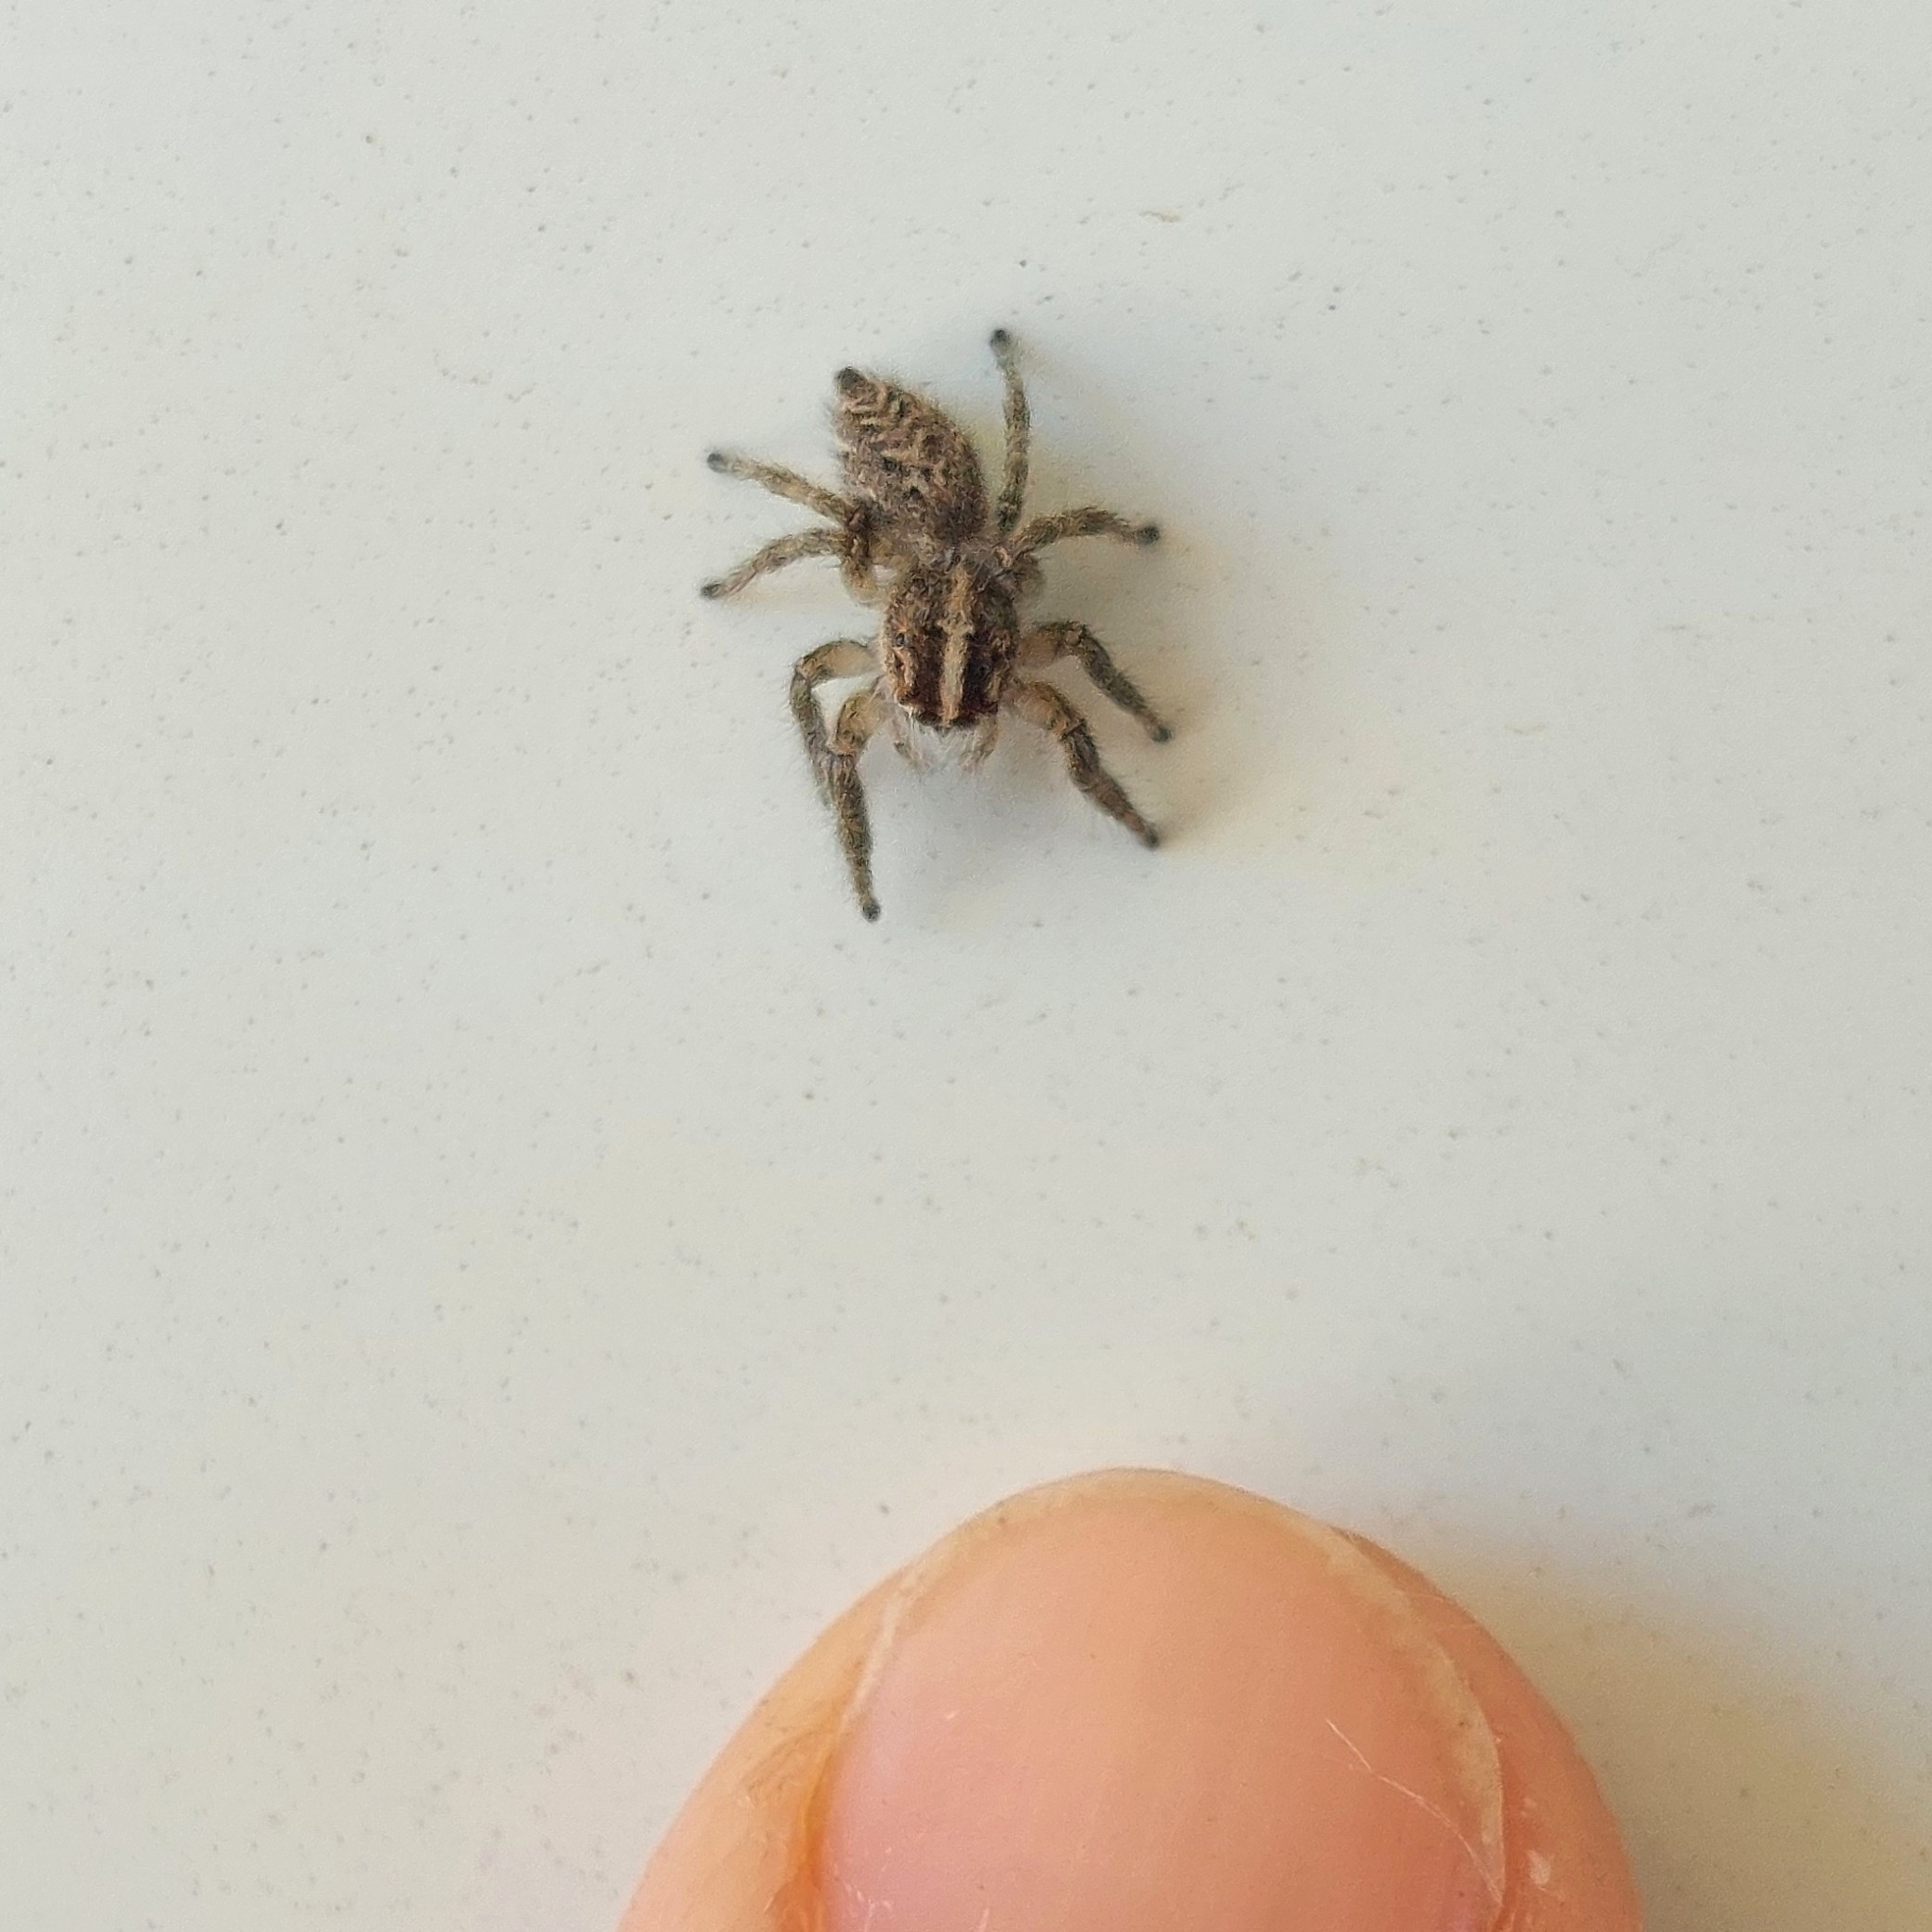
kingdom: Animalia
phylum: Arthropoda
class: Arachnida
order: Araneae
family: Salticidae
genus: Trydarssus
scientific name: Trydarssus pantherinus
